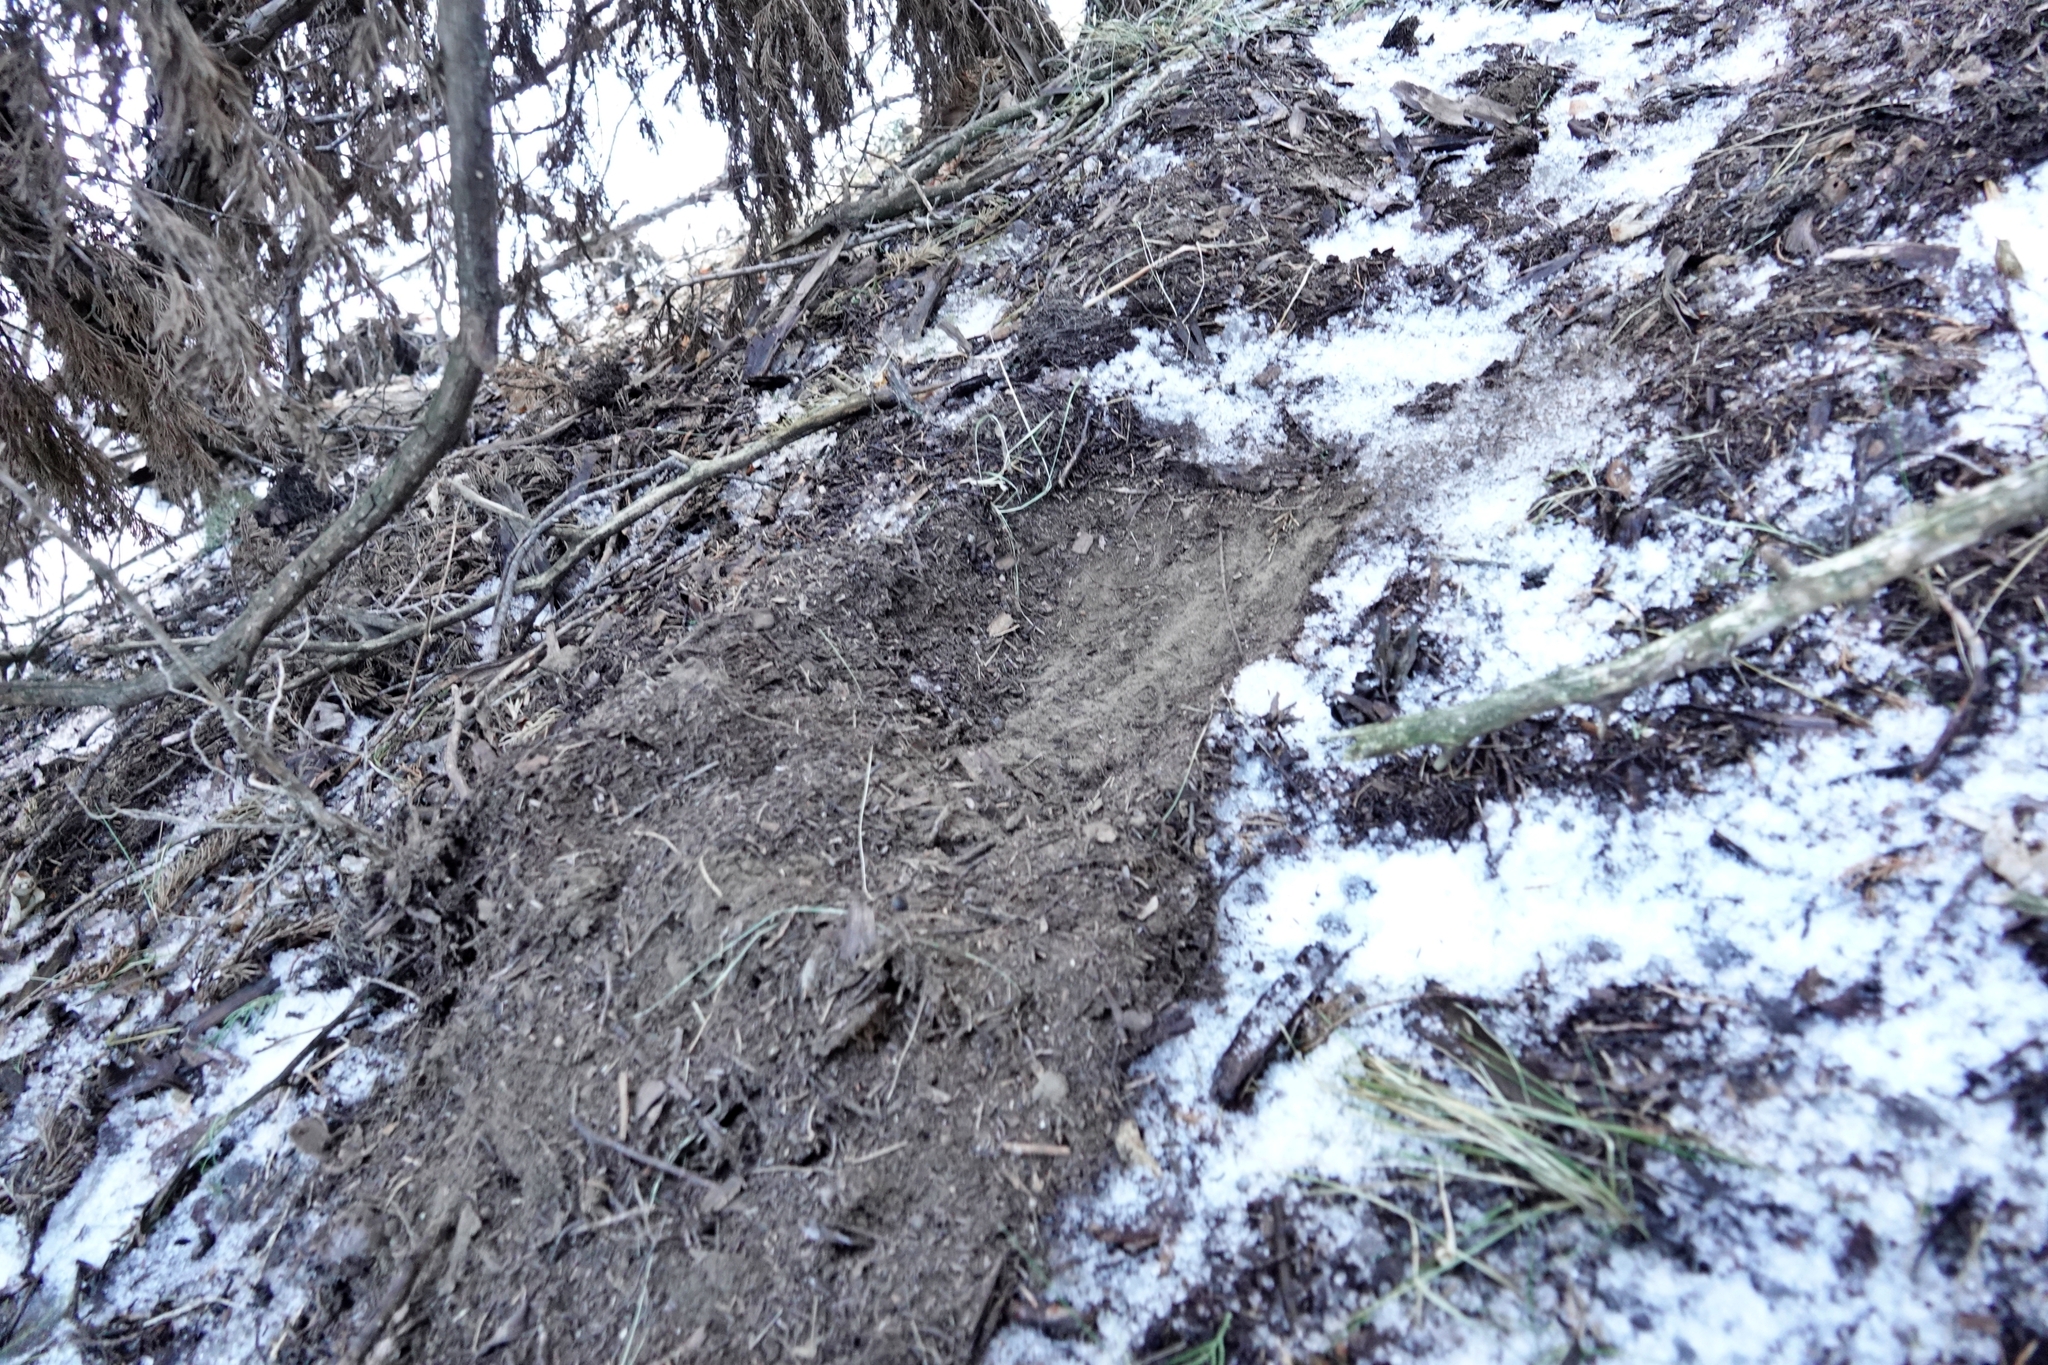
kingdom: Animalia
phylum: Chordata
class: Mammalia
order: Carnivora
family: Felidae
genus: Puma
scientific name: Puma concolor
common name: Puma
